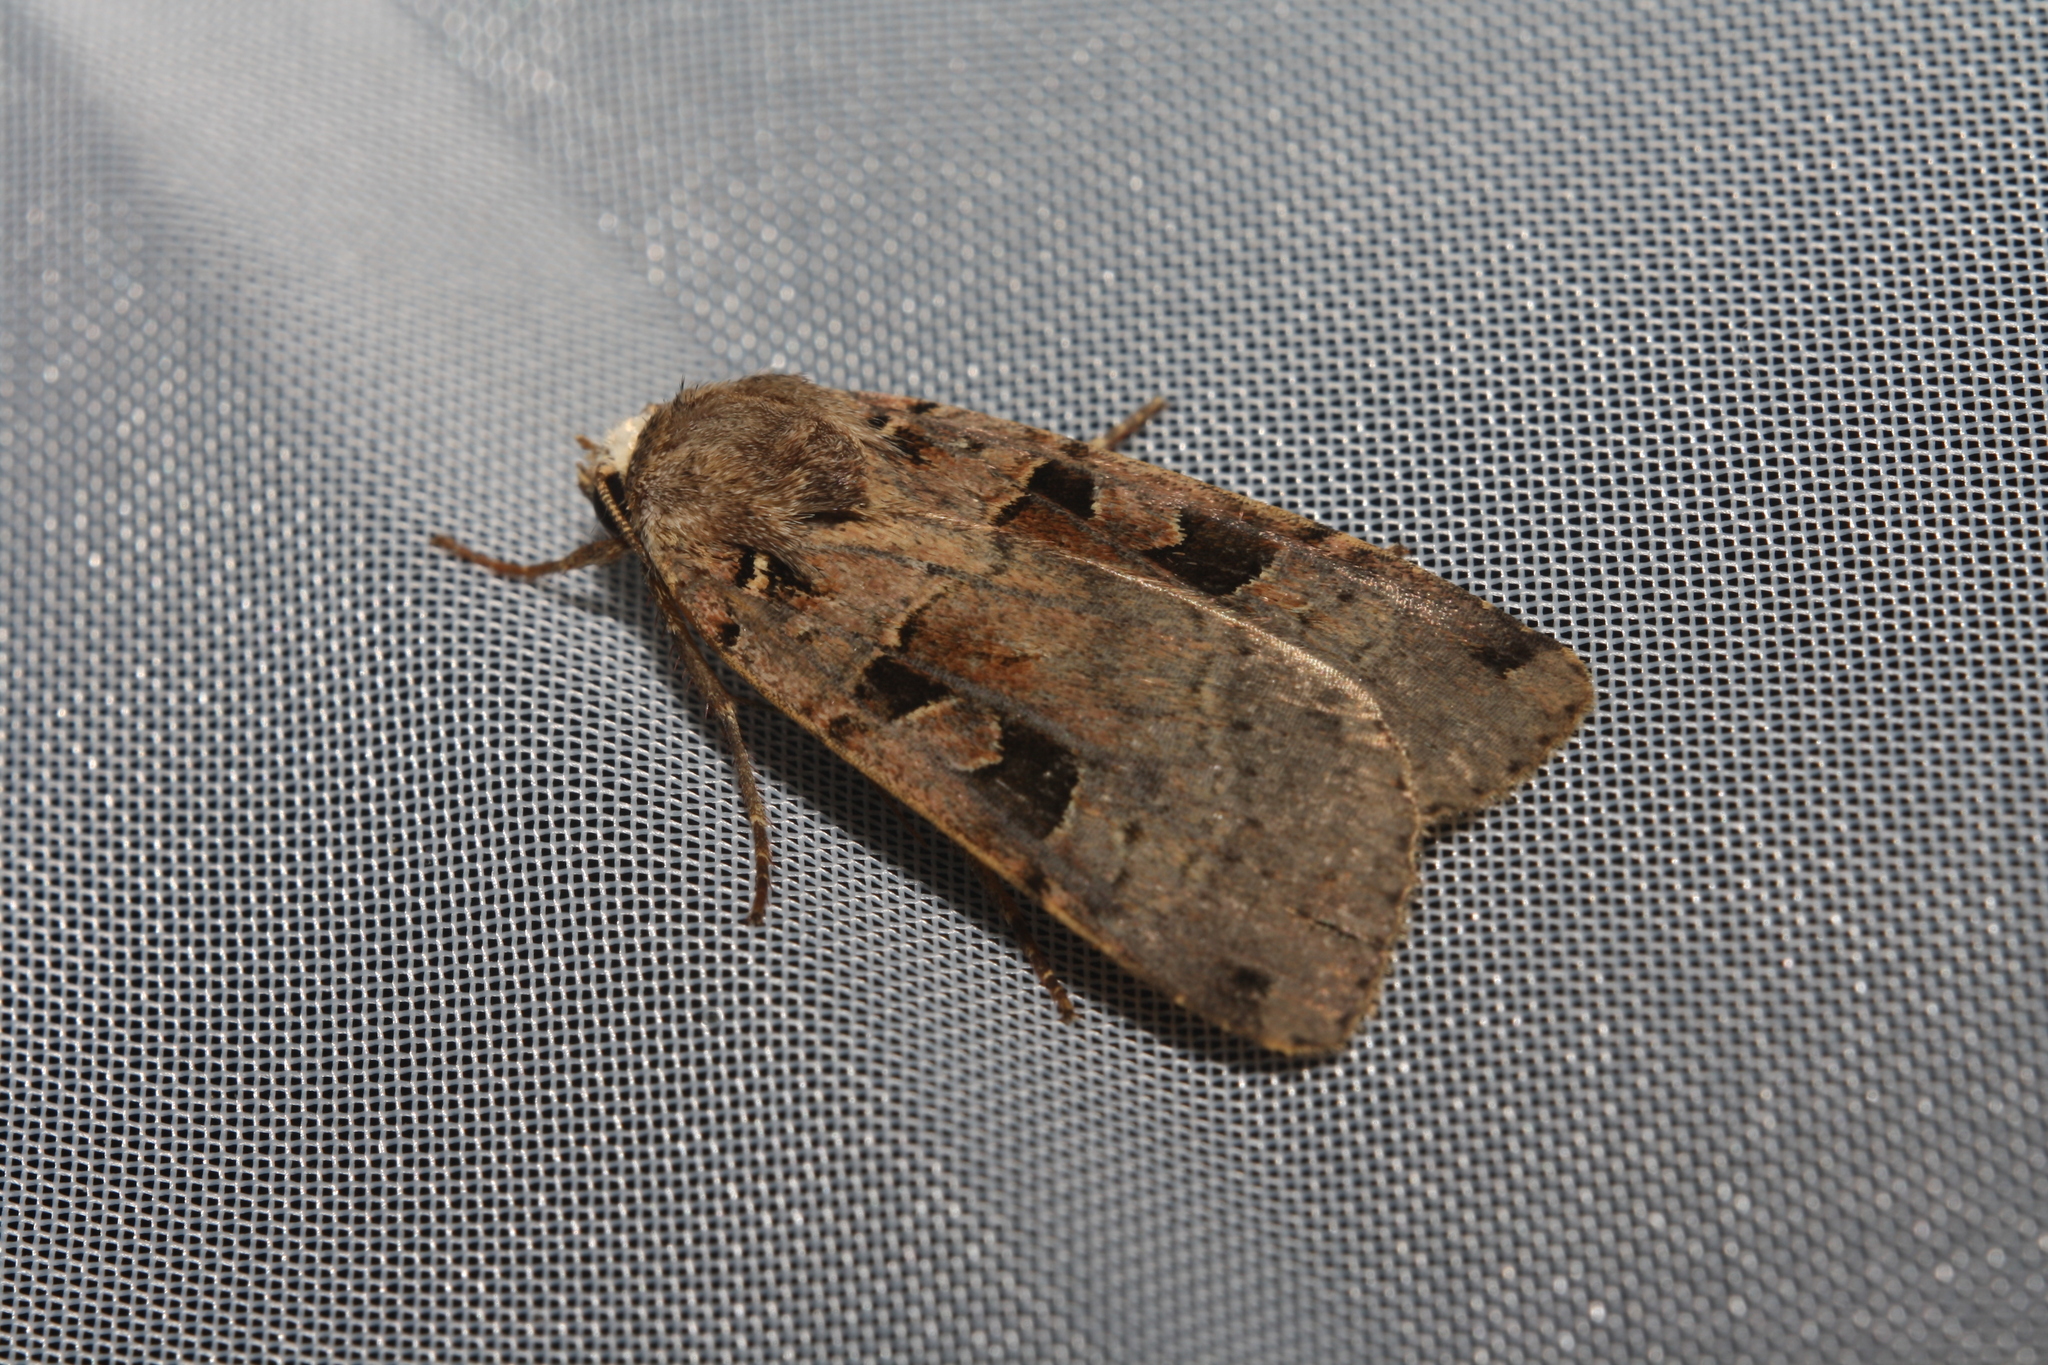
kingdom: Animalia
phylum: Arthropoda
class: Insecta
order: Lepidoptera
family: Noctuidae
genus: Xestia
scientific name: Xestia triangulum
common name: Double square-spot
